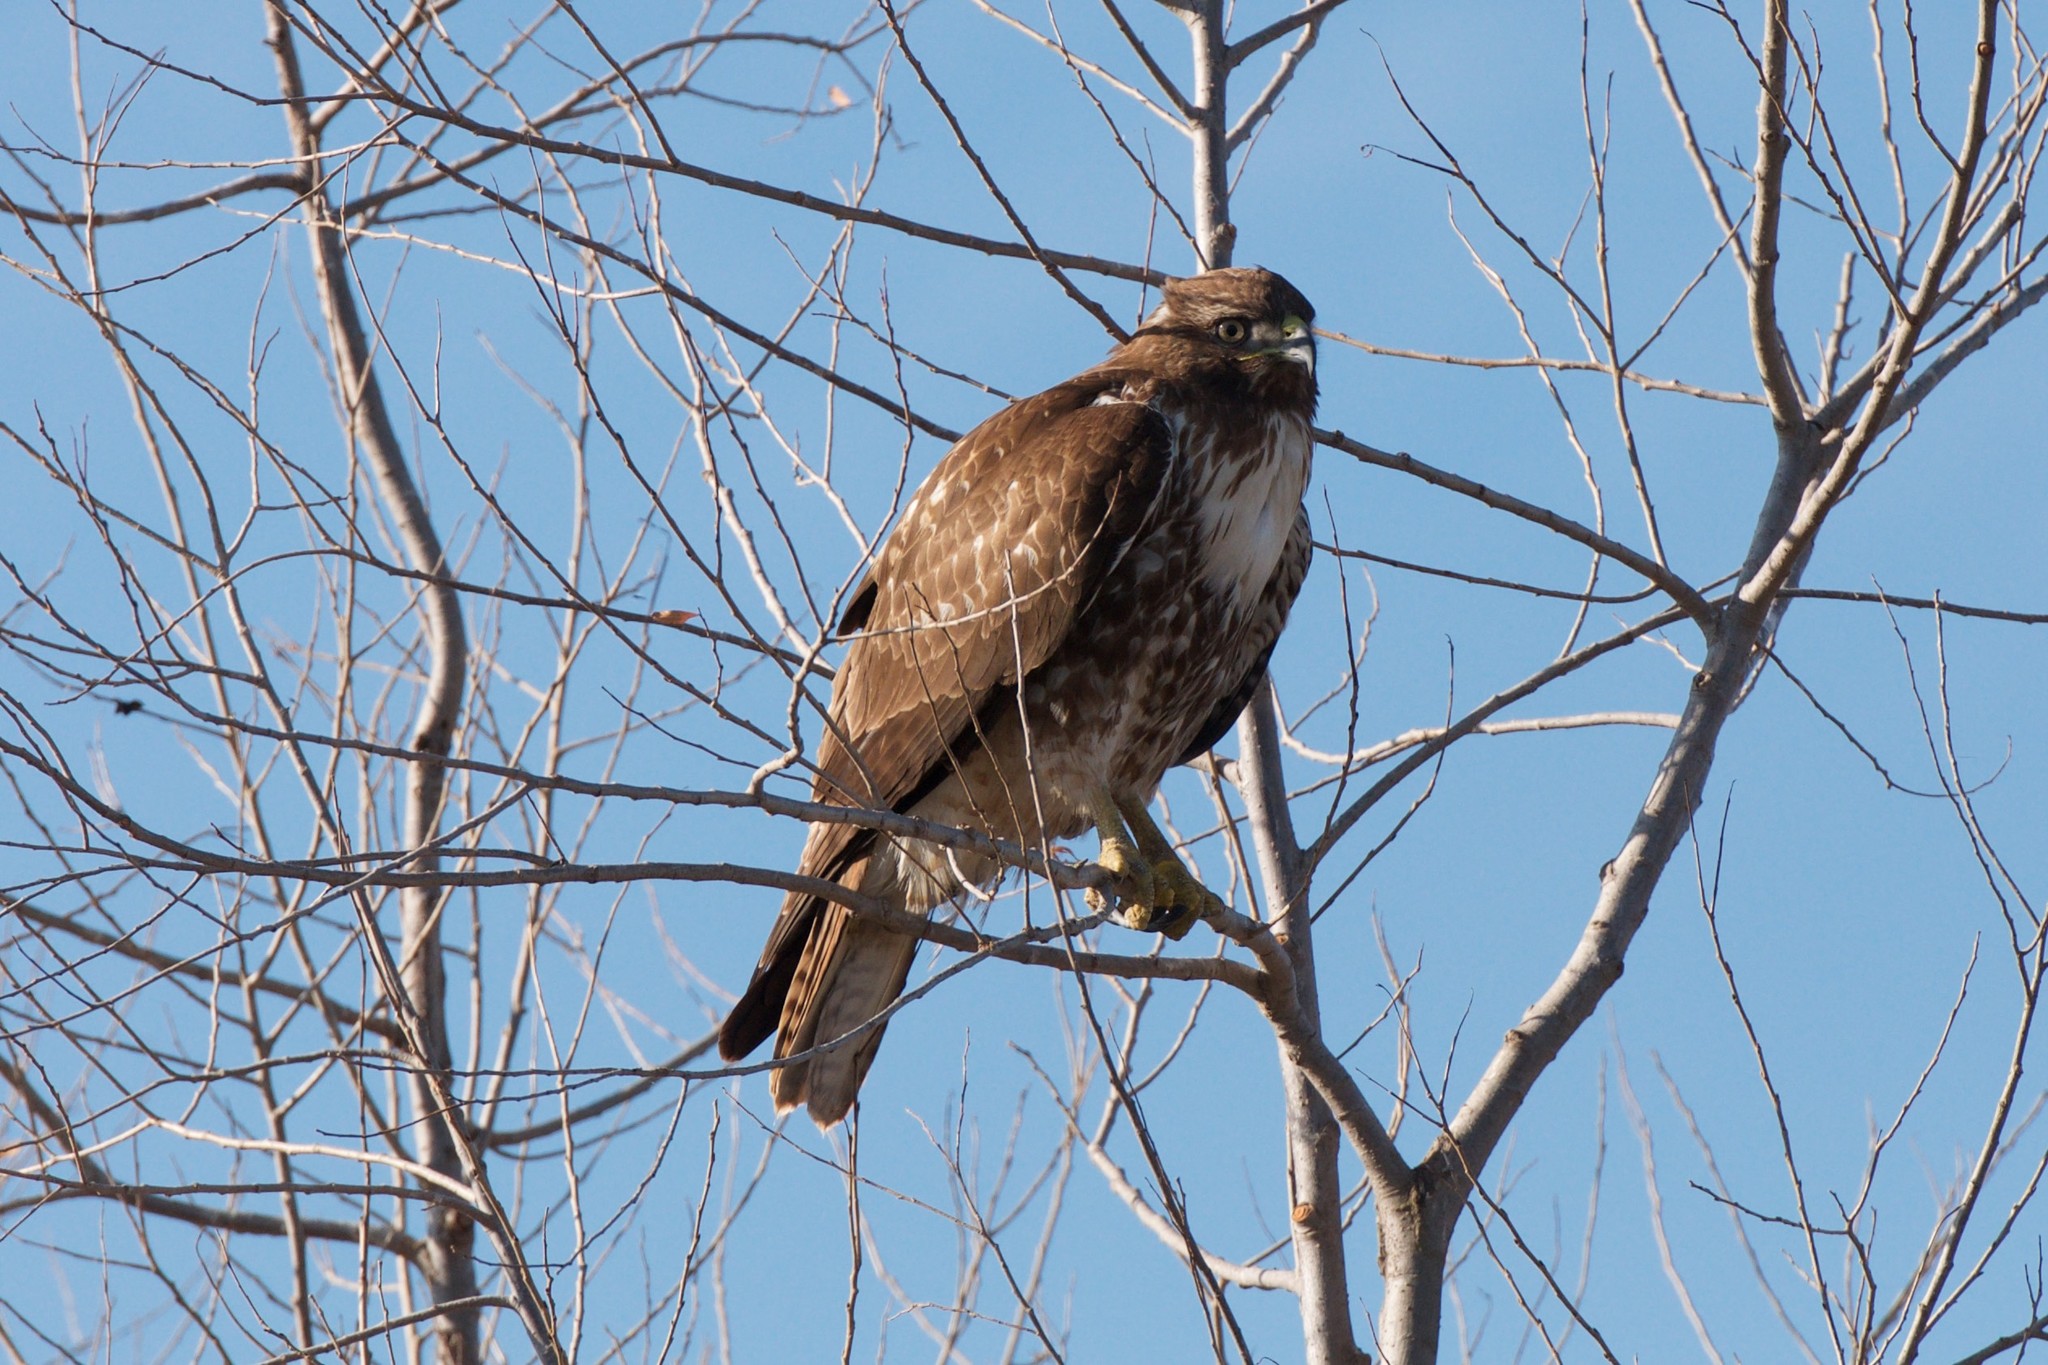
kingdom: Animalia
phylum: Chordata
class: Aves
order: Accipitriformes
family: Accipitridae
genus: Buteo
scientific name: Buteo jamaicensis
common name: Red-tailed hawk
